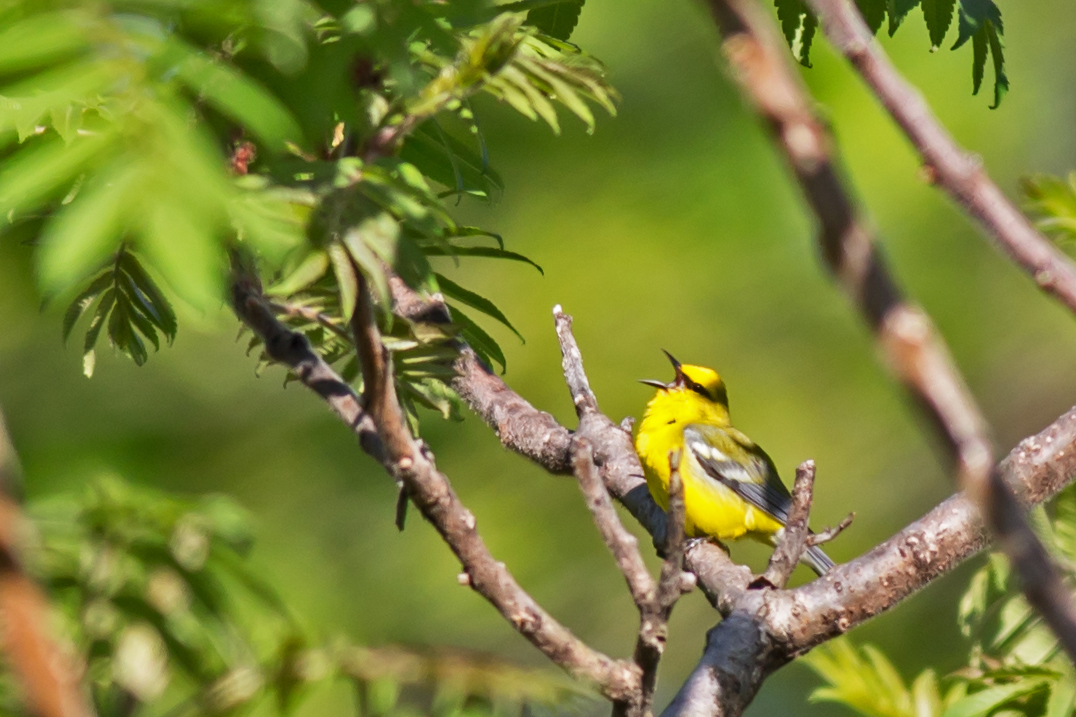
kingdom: Animalia
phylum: Chordata
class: Aves
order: Passeriformes
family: Parulidae
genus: Vermivora
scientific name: Vermivora cyanoptera
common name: Blue-winged warbler
